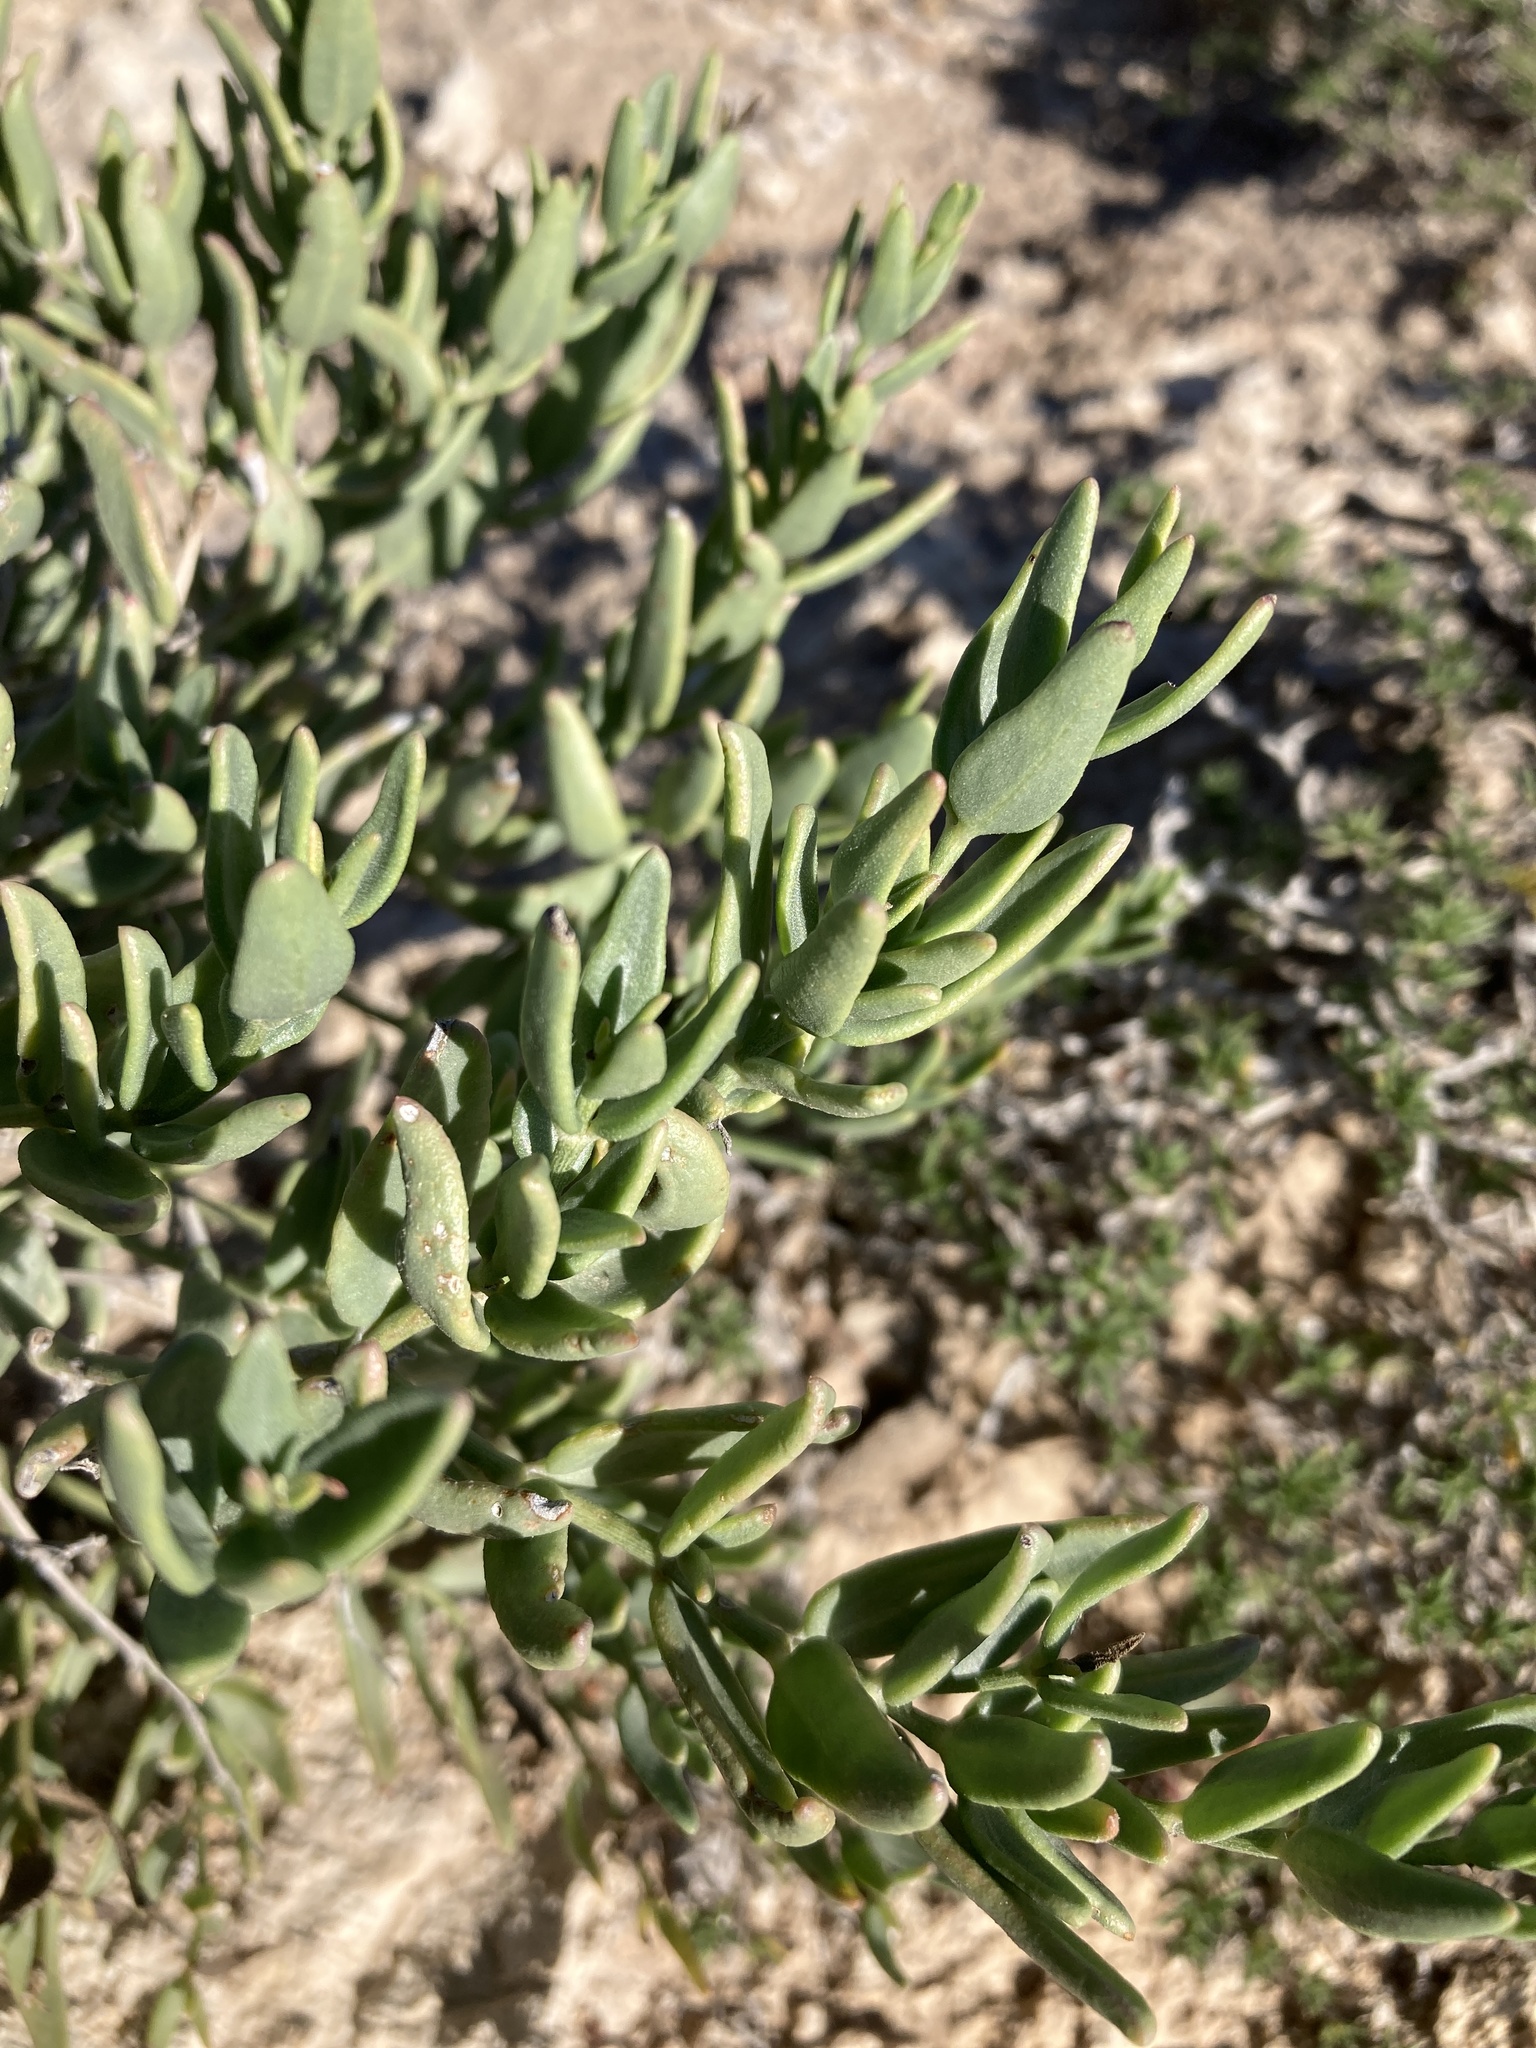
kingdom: Plantae
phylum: Tracheophyta
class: Magnoliopsida
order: Caryophyllales
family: Nyctaginaceae
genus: Acleisanthes
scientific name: Acleisanthes lanceolata
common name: Gypsum moonpod
